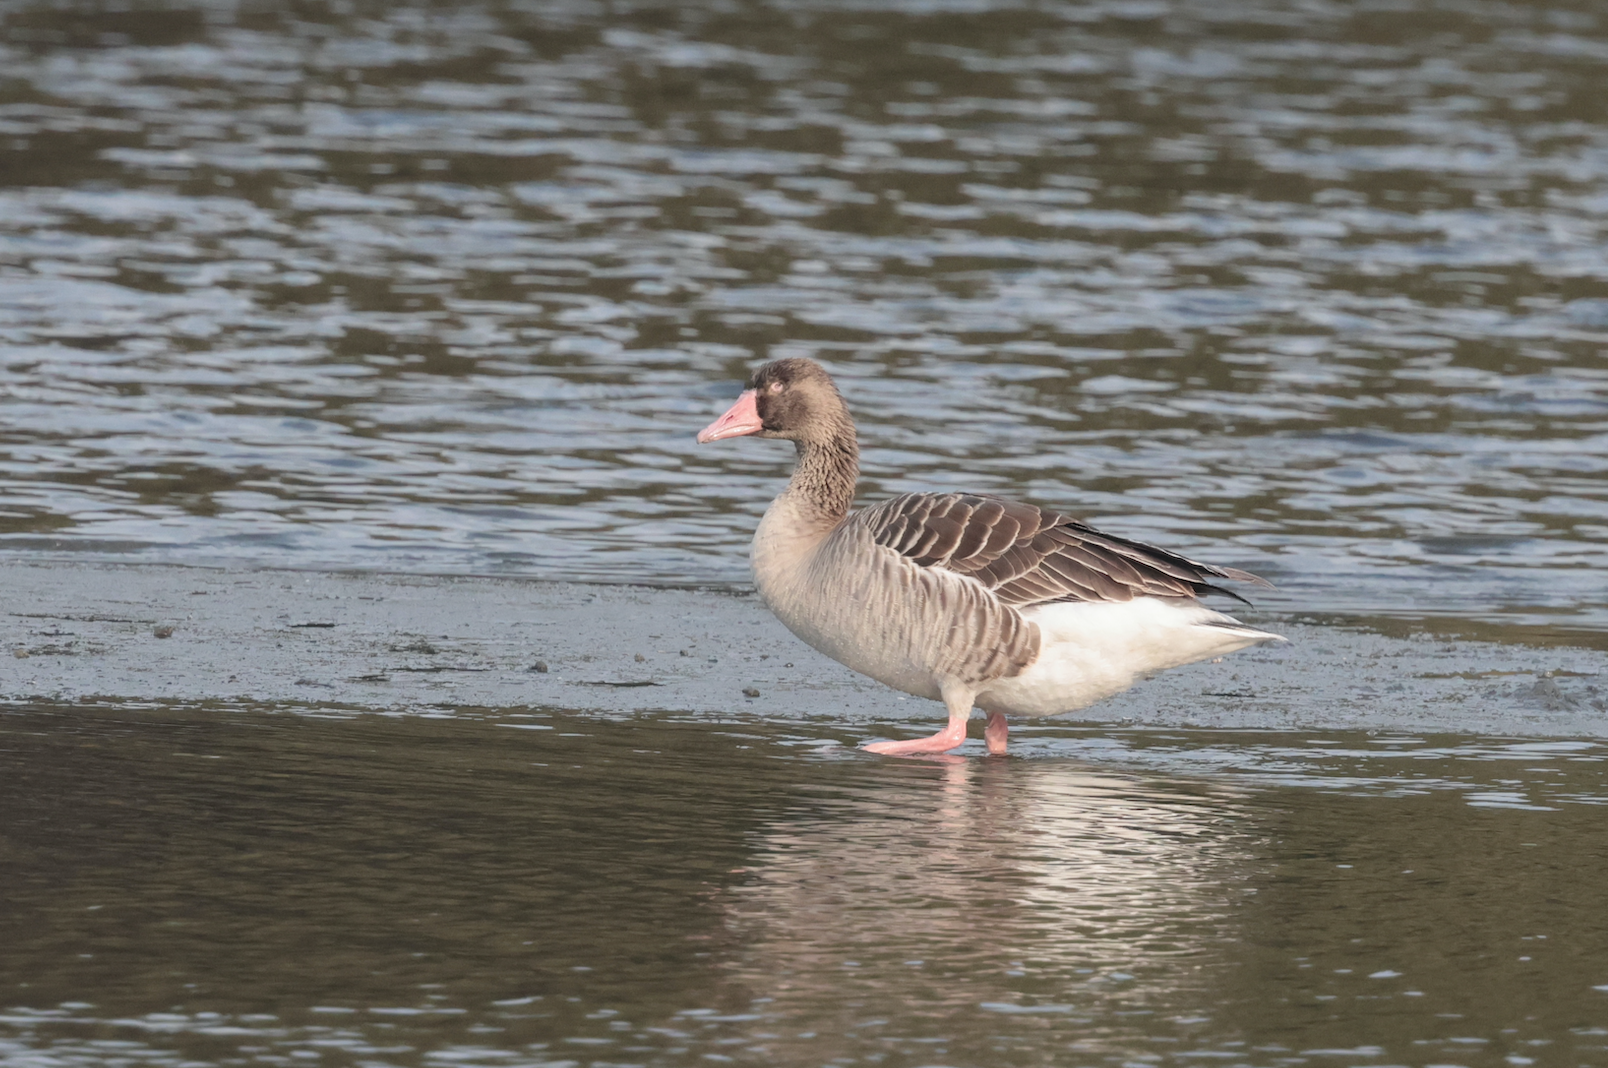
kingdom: Animalia
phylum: Chordata
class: Aves
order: Anseriformes
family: Anatidae
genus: Anser
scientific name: Anser anser
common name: Greylag goose
